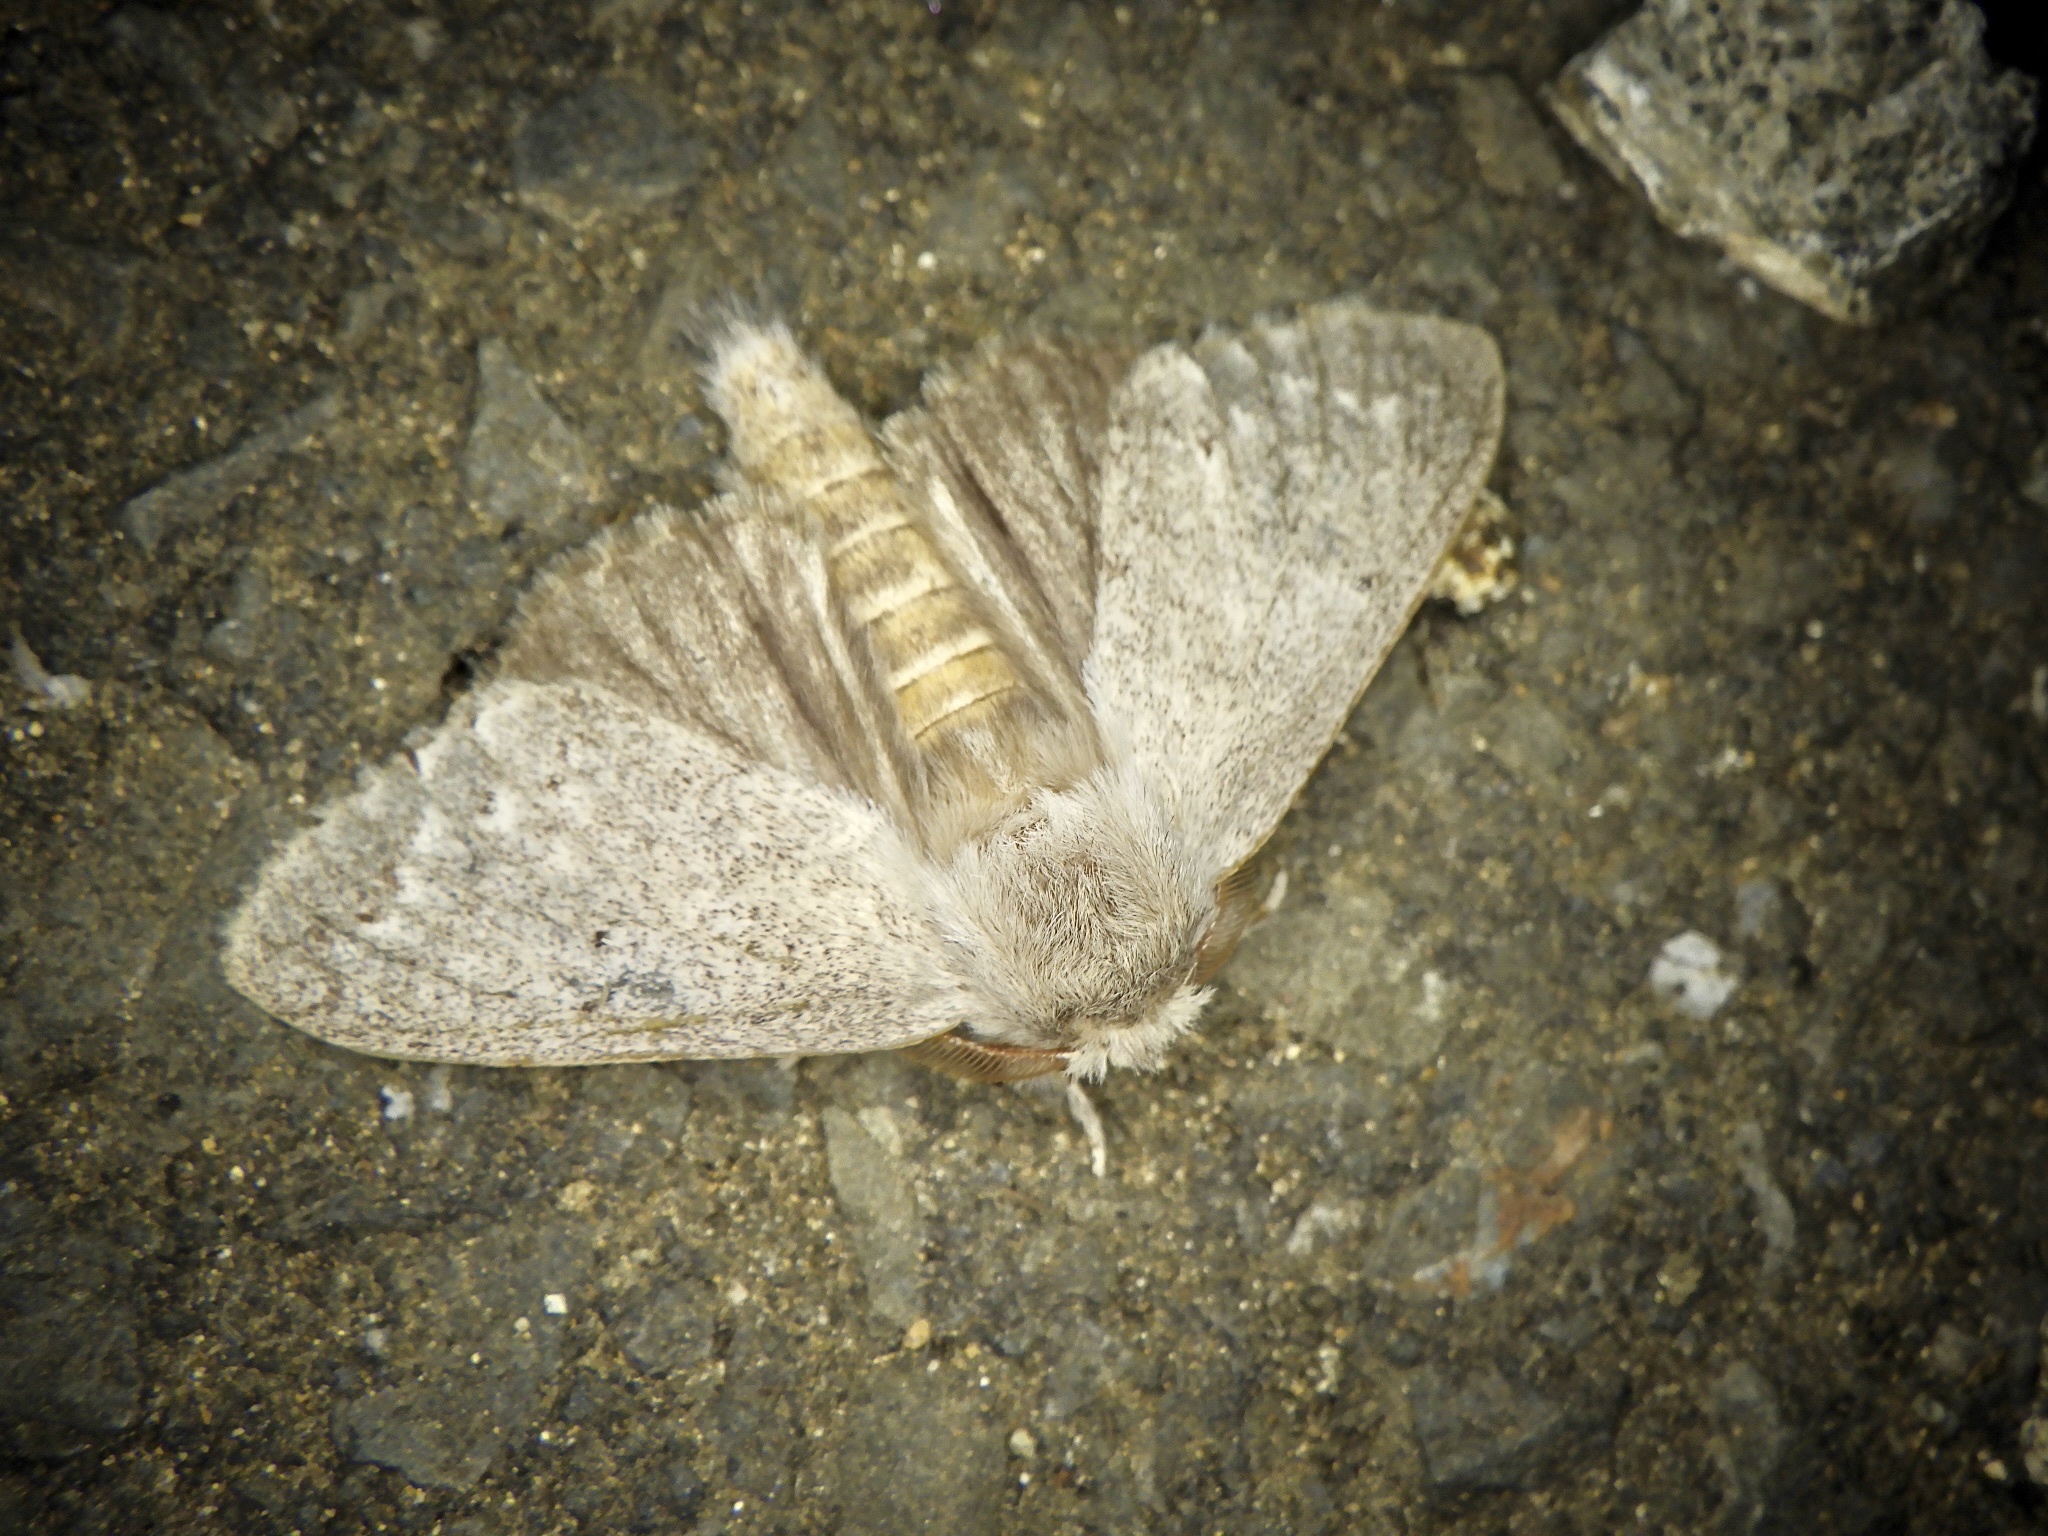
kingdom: Animalia
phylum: Arthropoda
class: Insecta
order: Lepidoptera
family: Notodontidae
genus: Cnethodonta
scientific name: Cnethodonta grisescens
